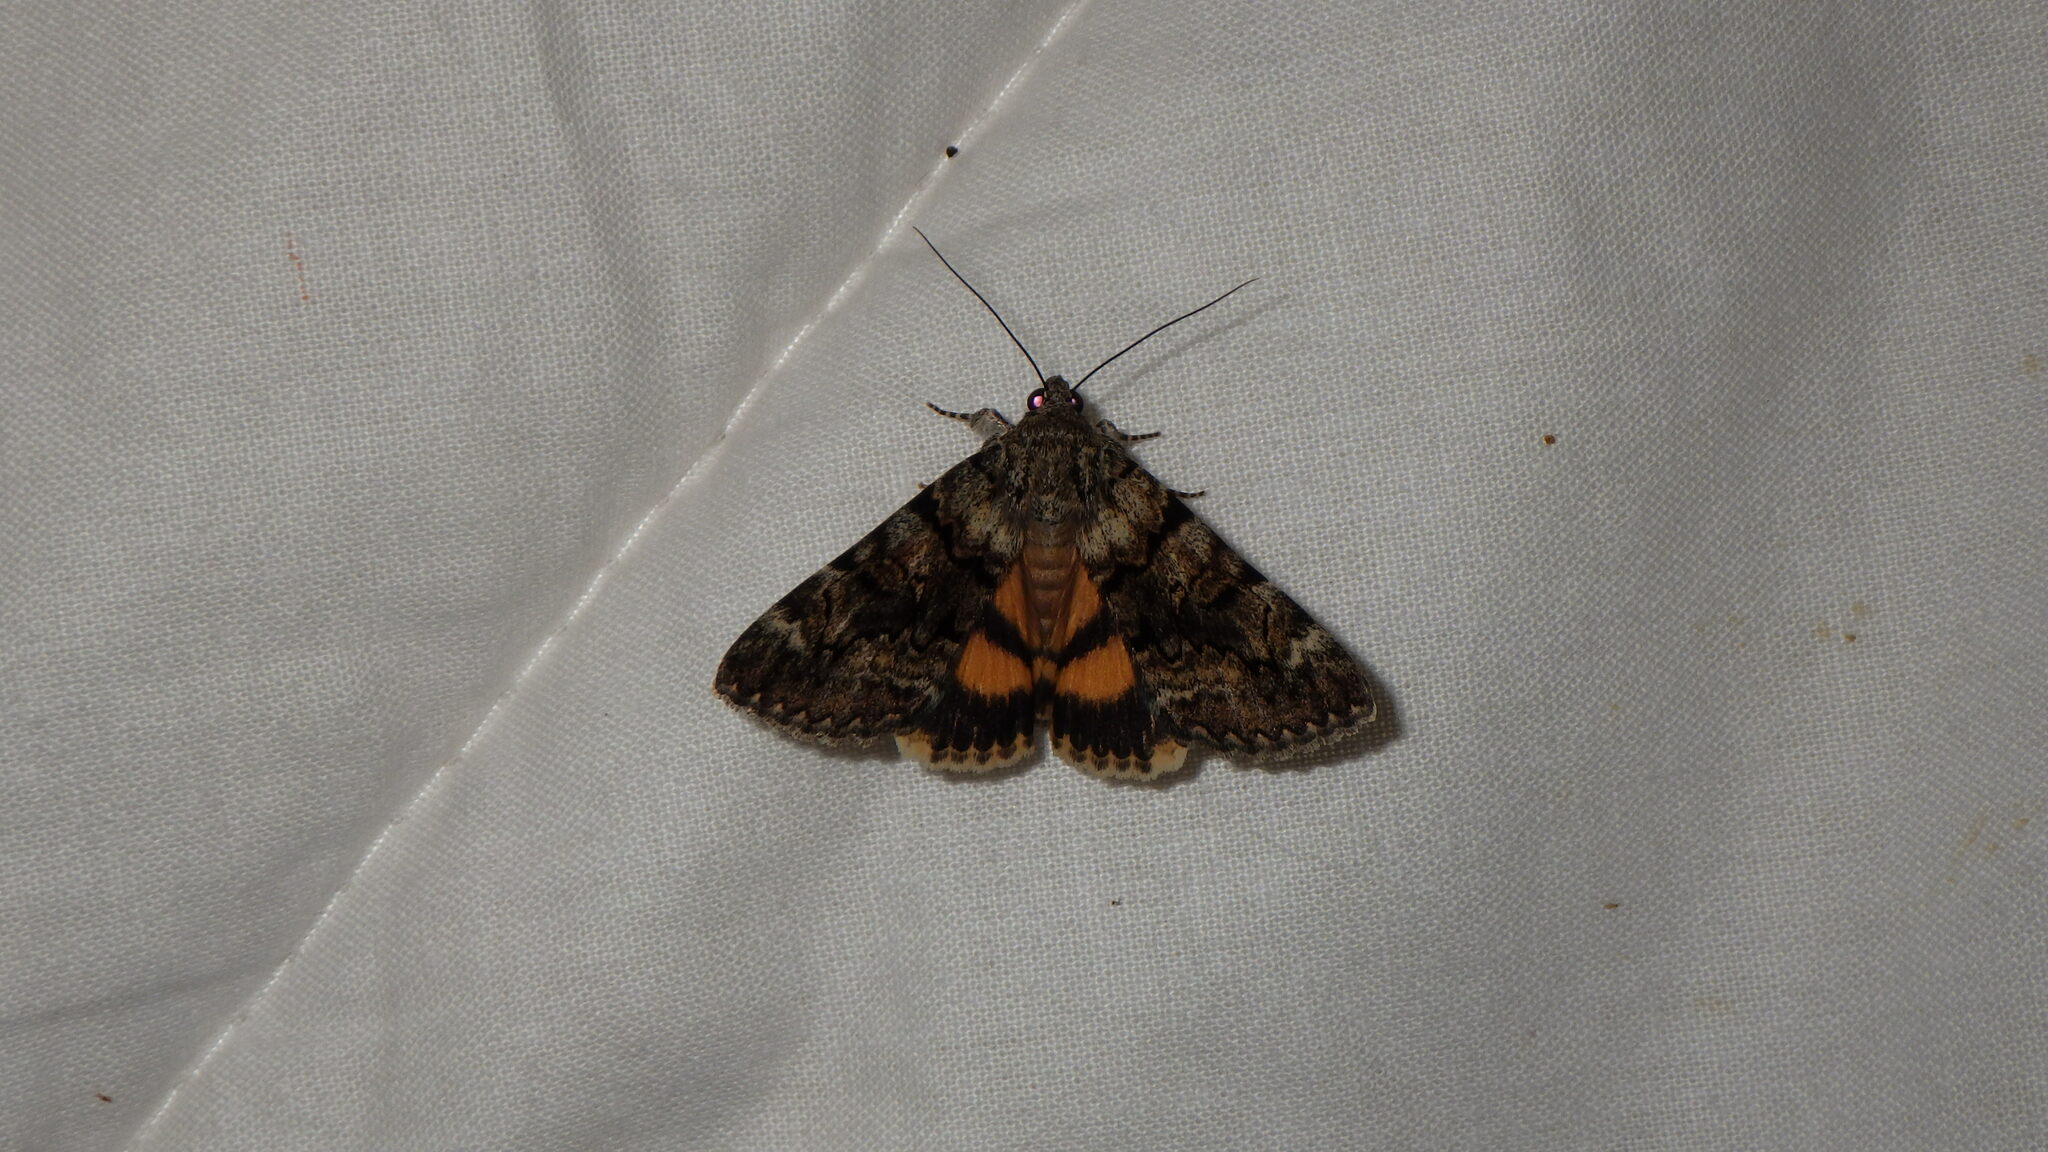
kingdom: Animalia
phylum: Arthropoda
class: Insecta
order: Lepidoptera
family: Erebidae
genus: Catocala
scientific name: Catocala nymphagoga
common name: Oak yellow underwing
